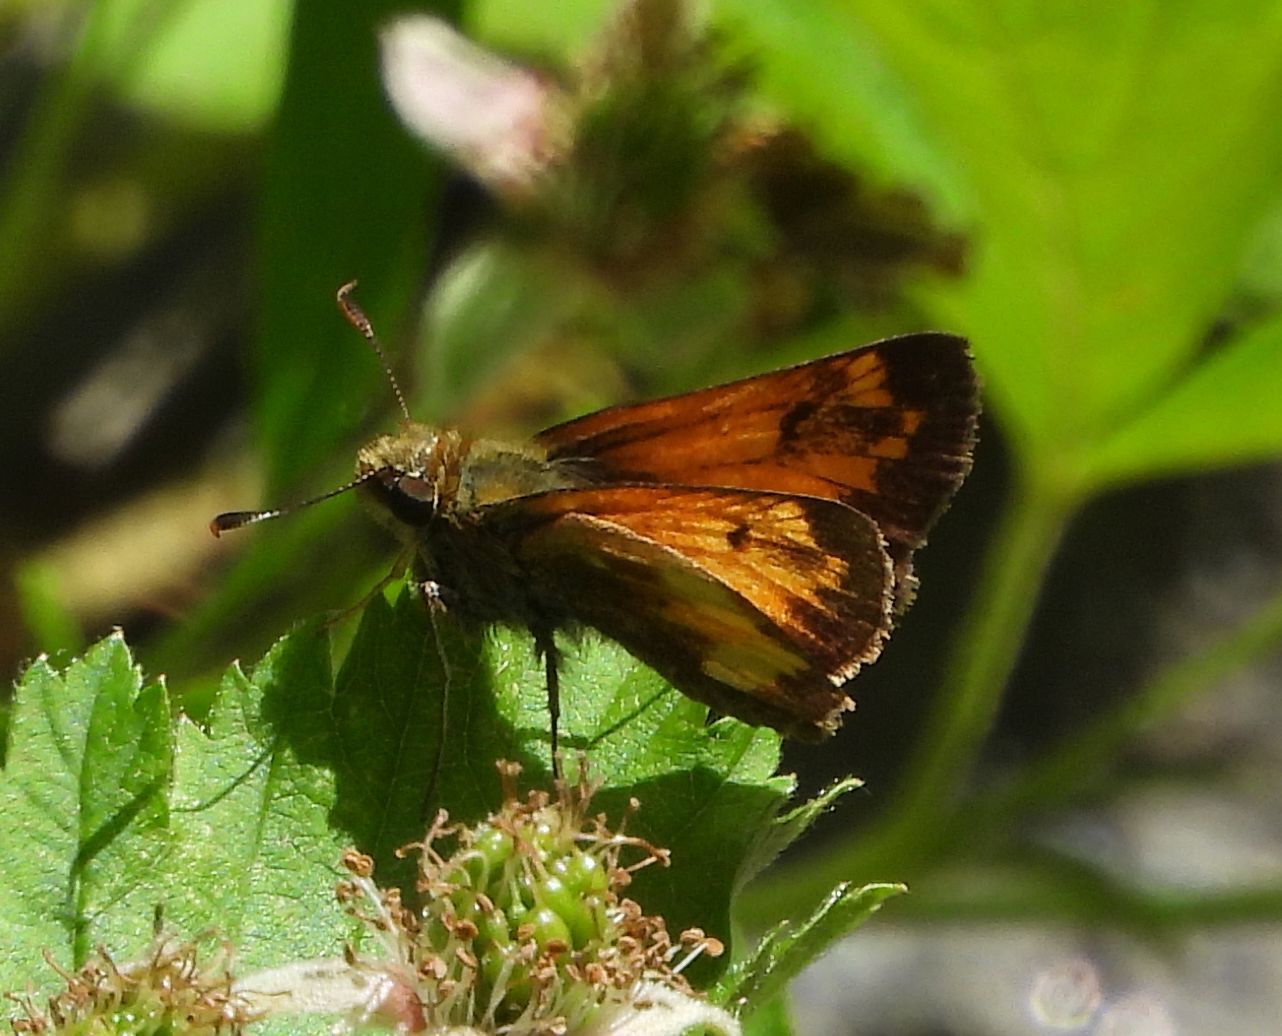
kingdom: Animalia
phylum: Arthropoda
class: Insecta
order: Lepidoptera
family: Hesperiidae
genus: Lon
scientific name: Lon hobomok
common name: Hobomok skipper
